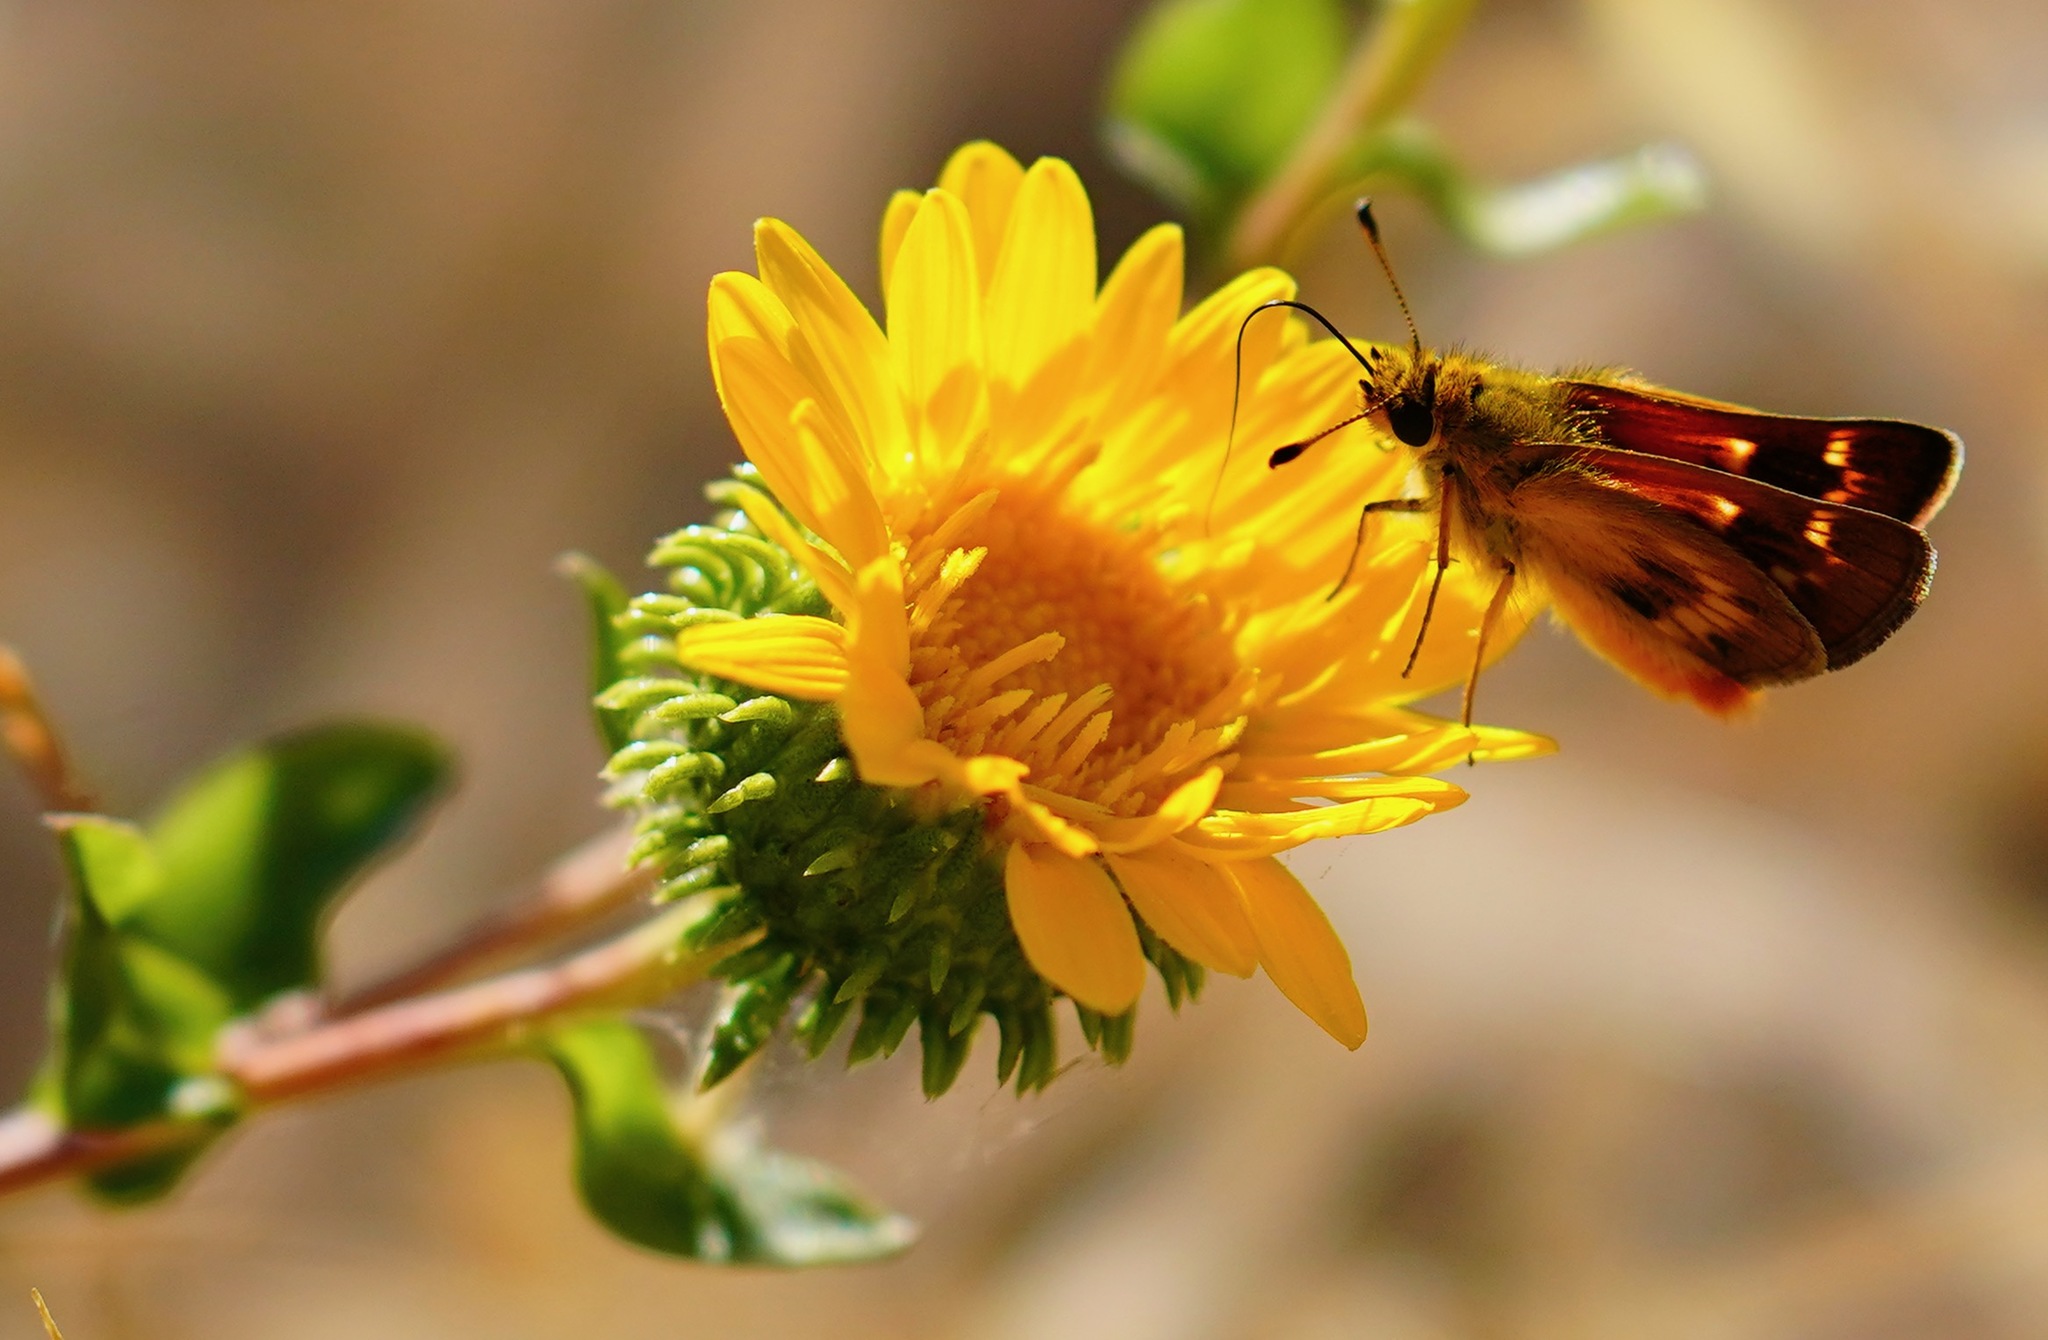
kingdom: Animalia
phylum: Arthropoda
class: Insecta
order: Lepidoptera
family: Hesperiidae
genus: Ochlodes
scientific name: Ochlodes agricola
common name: Rural skipper
